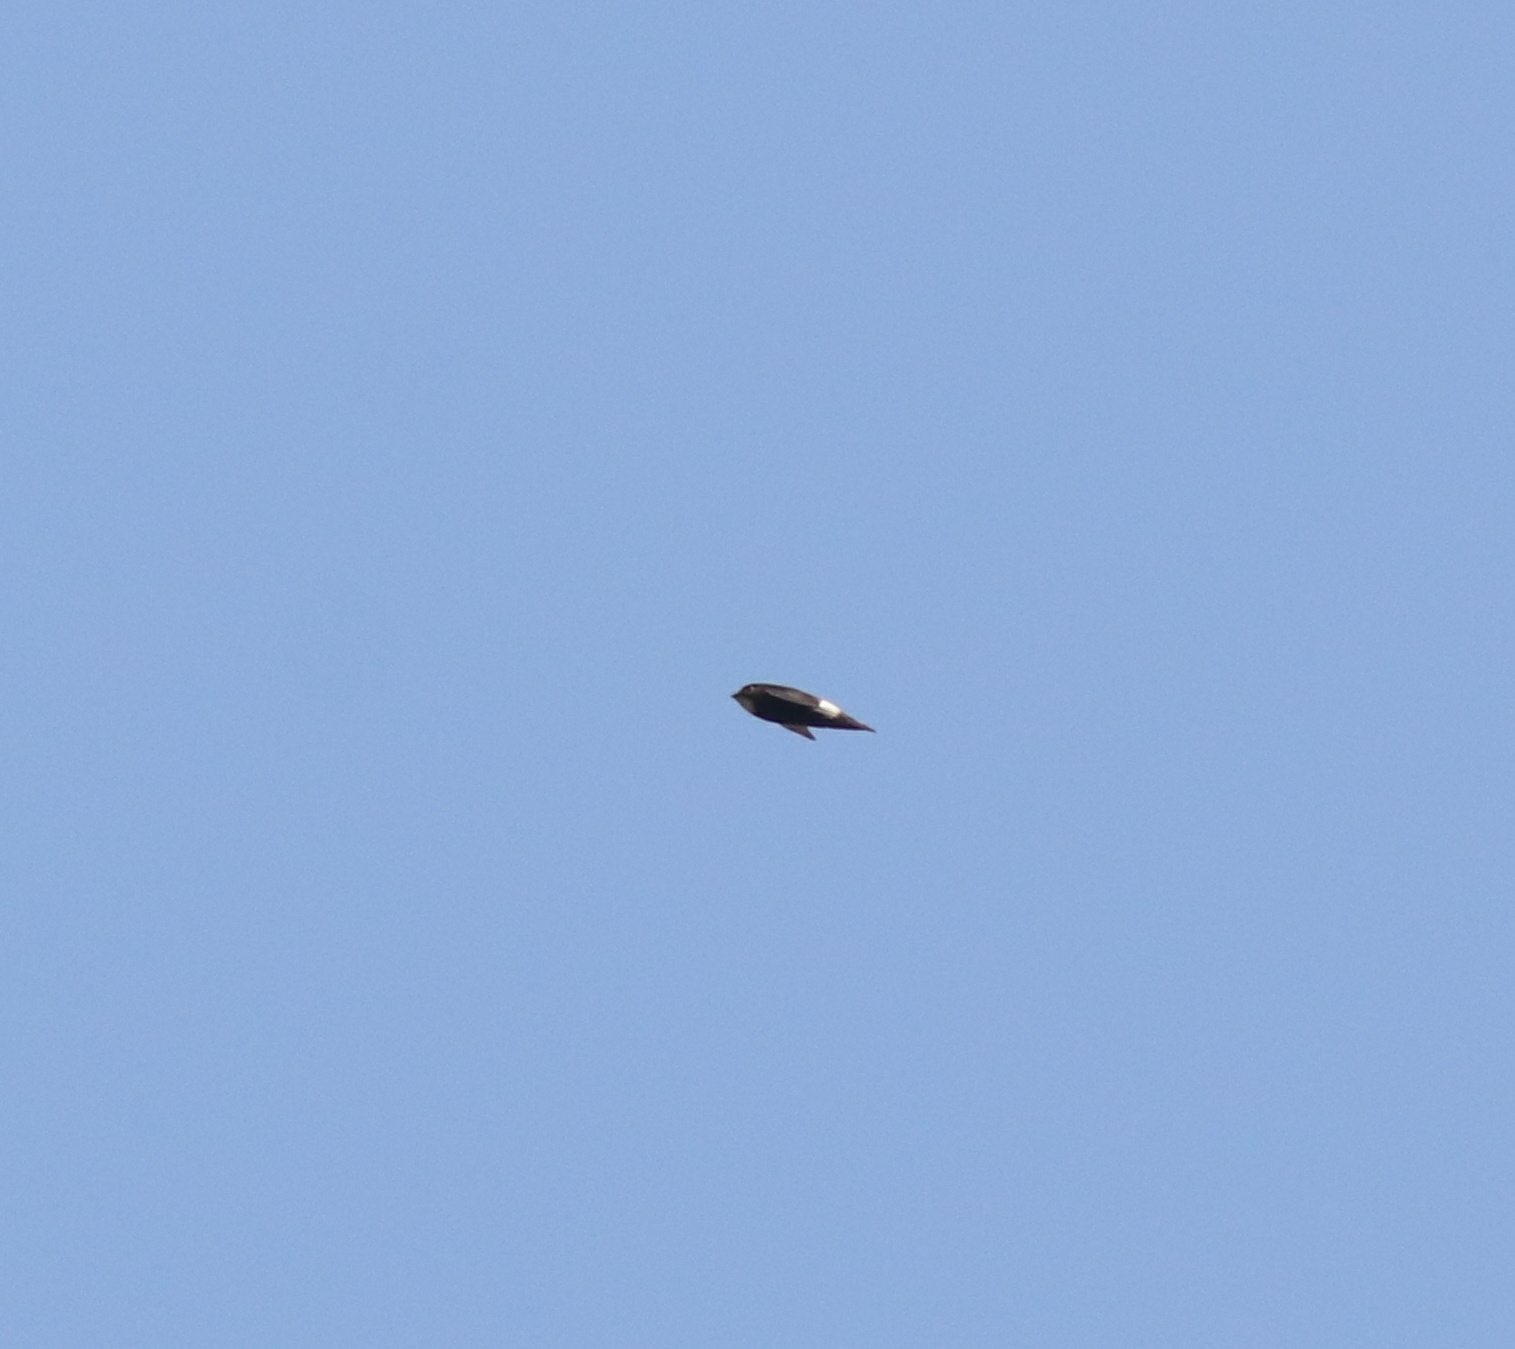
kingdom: Animalia
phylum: Chordata
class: Aves
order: Apodiformes
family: Apodidae
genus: Apus
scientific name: Apus affinis
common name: Little swift
